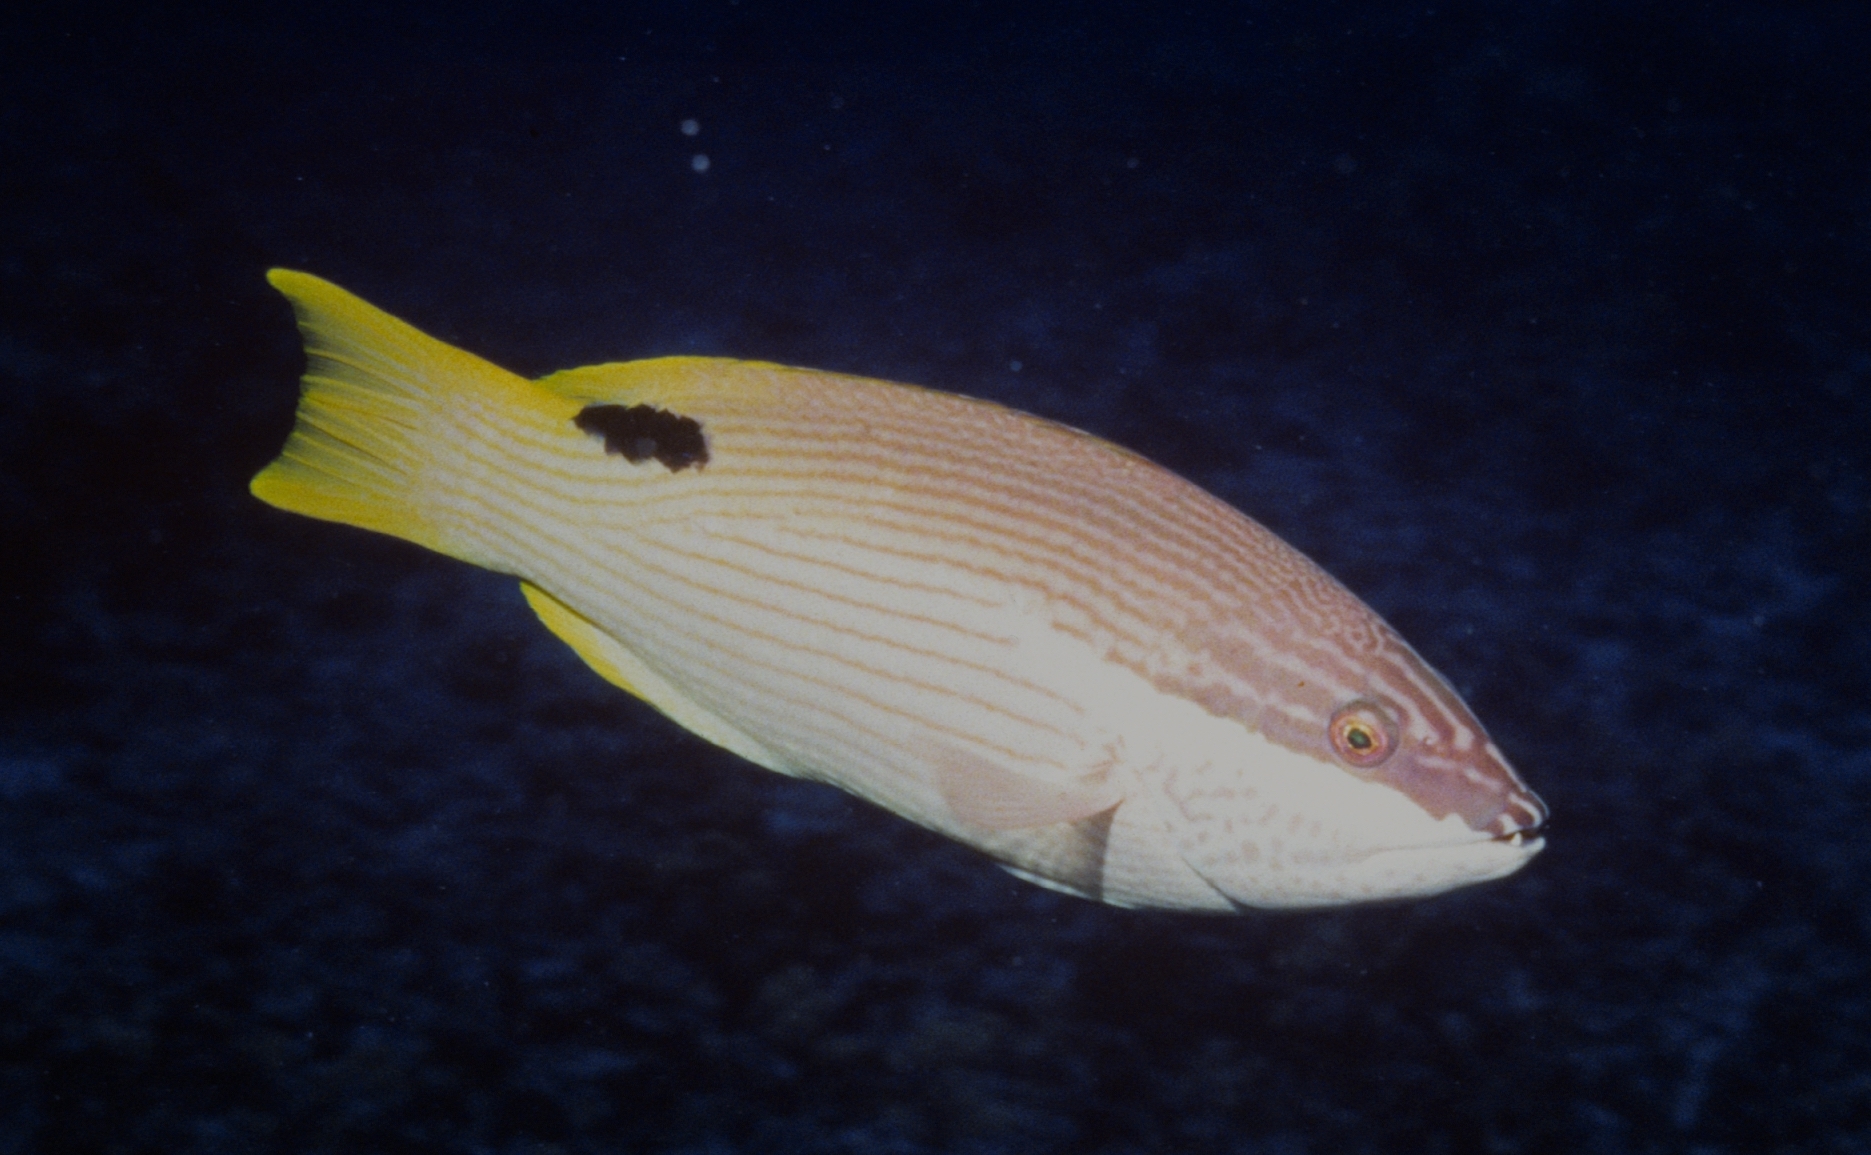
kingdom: Animalia
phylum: Chordata
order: Perciformes
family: Labridae
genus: Bodianus
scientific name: Bodianus albotaeniatus
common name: Hawaiian hogfish
